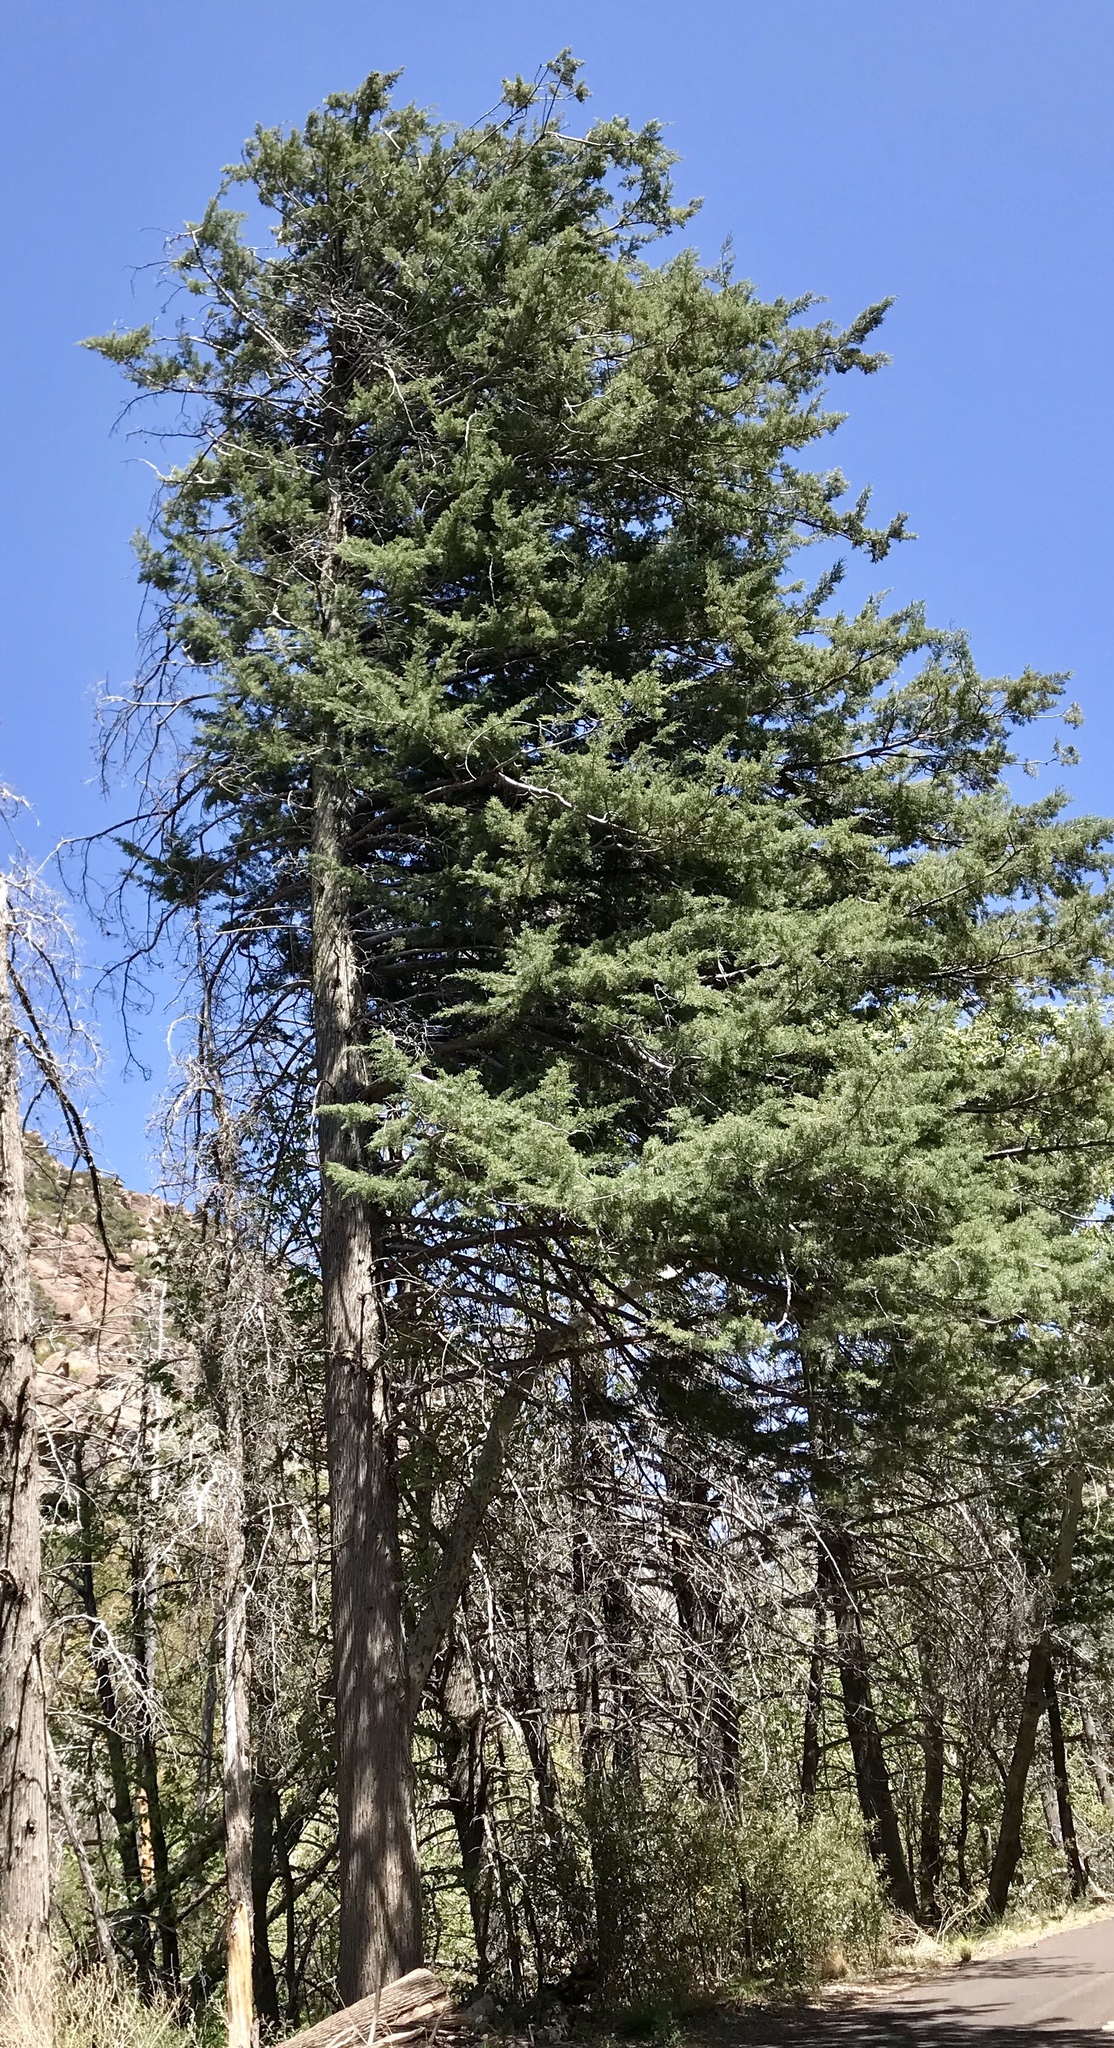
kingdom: Plantae
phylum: Tracheophyta
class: Pinopsida
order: Pinales
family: Cupressaceae
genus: Cupressus
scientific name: Cupressus arizonica
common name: Arizona cypress
